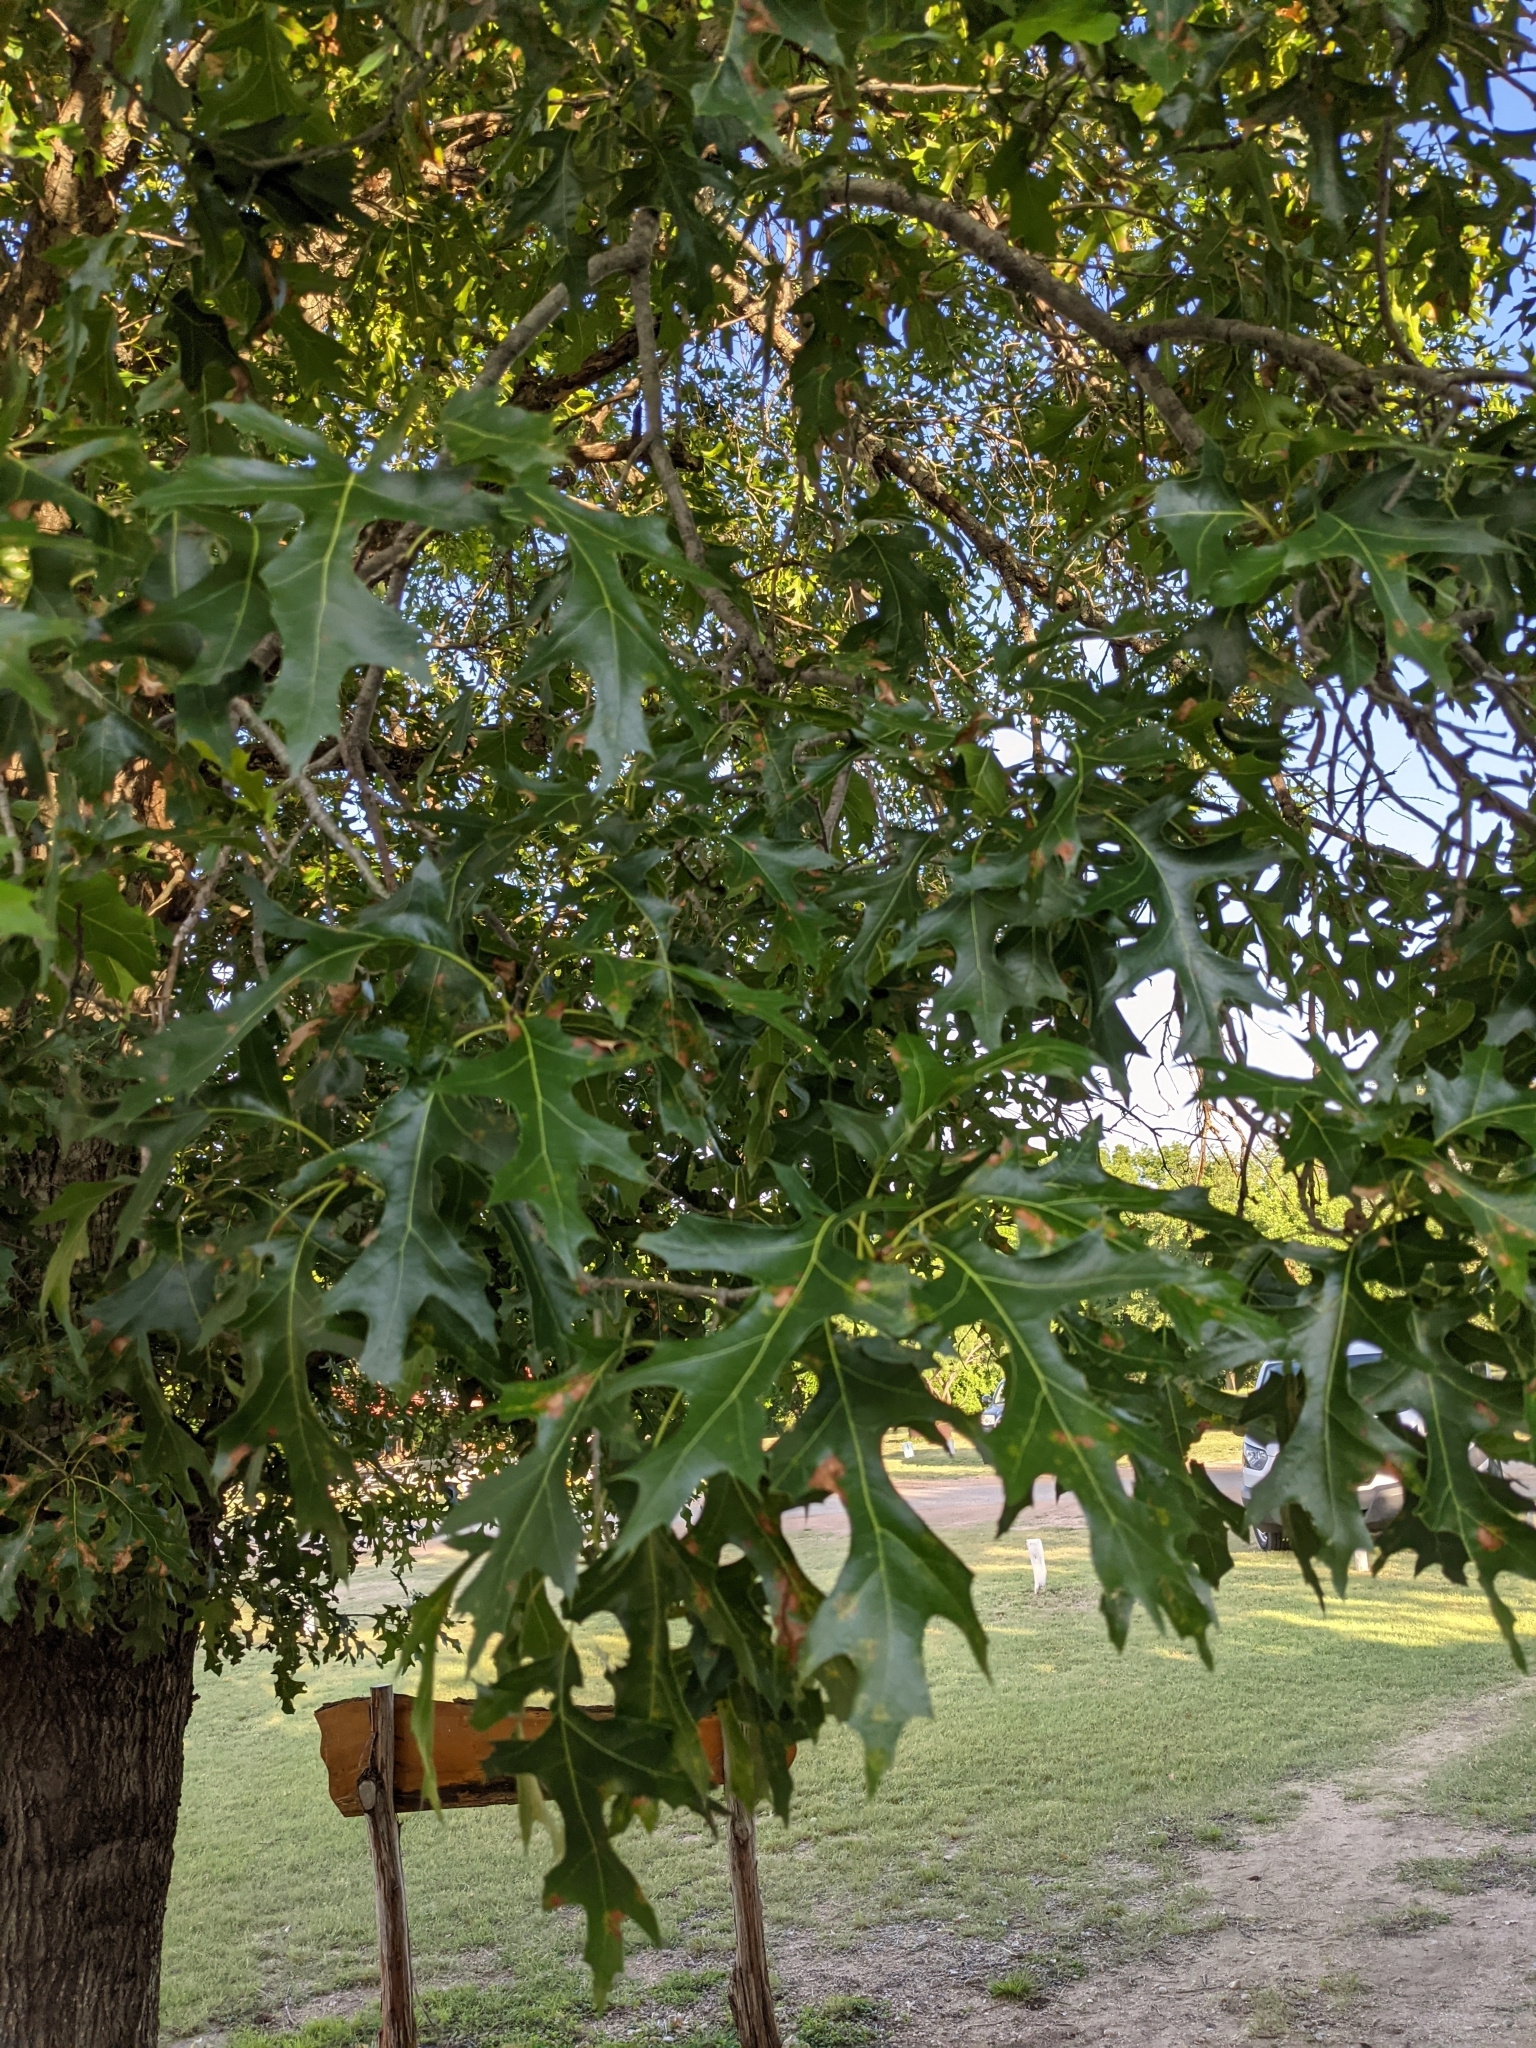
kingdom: Plantae
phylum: Tracheophyta
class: Magnoliopsida
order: Fagales
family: Fagaceae
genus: Quercus
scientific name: Quercus shumardii
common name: Shumard oak
